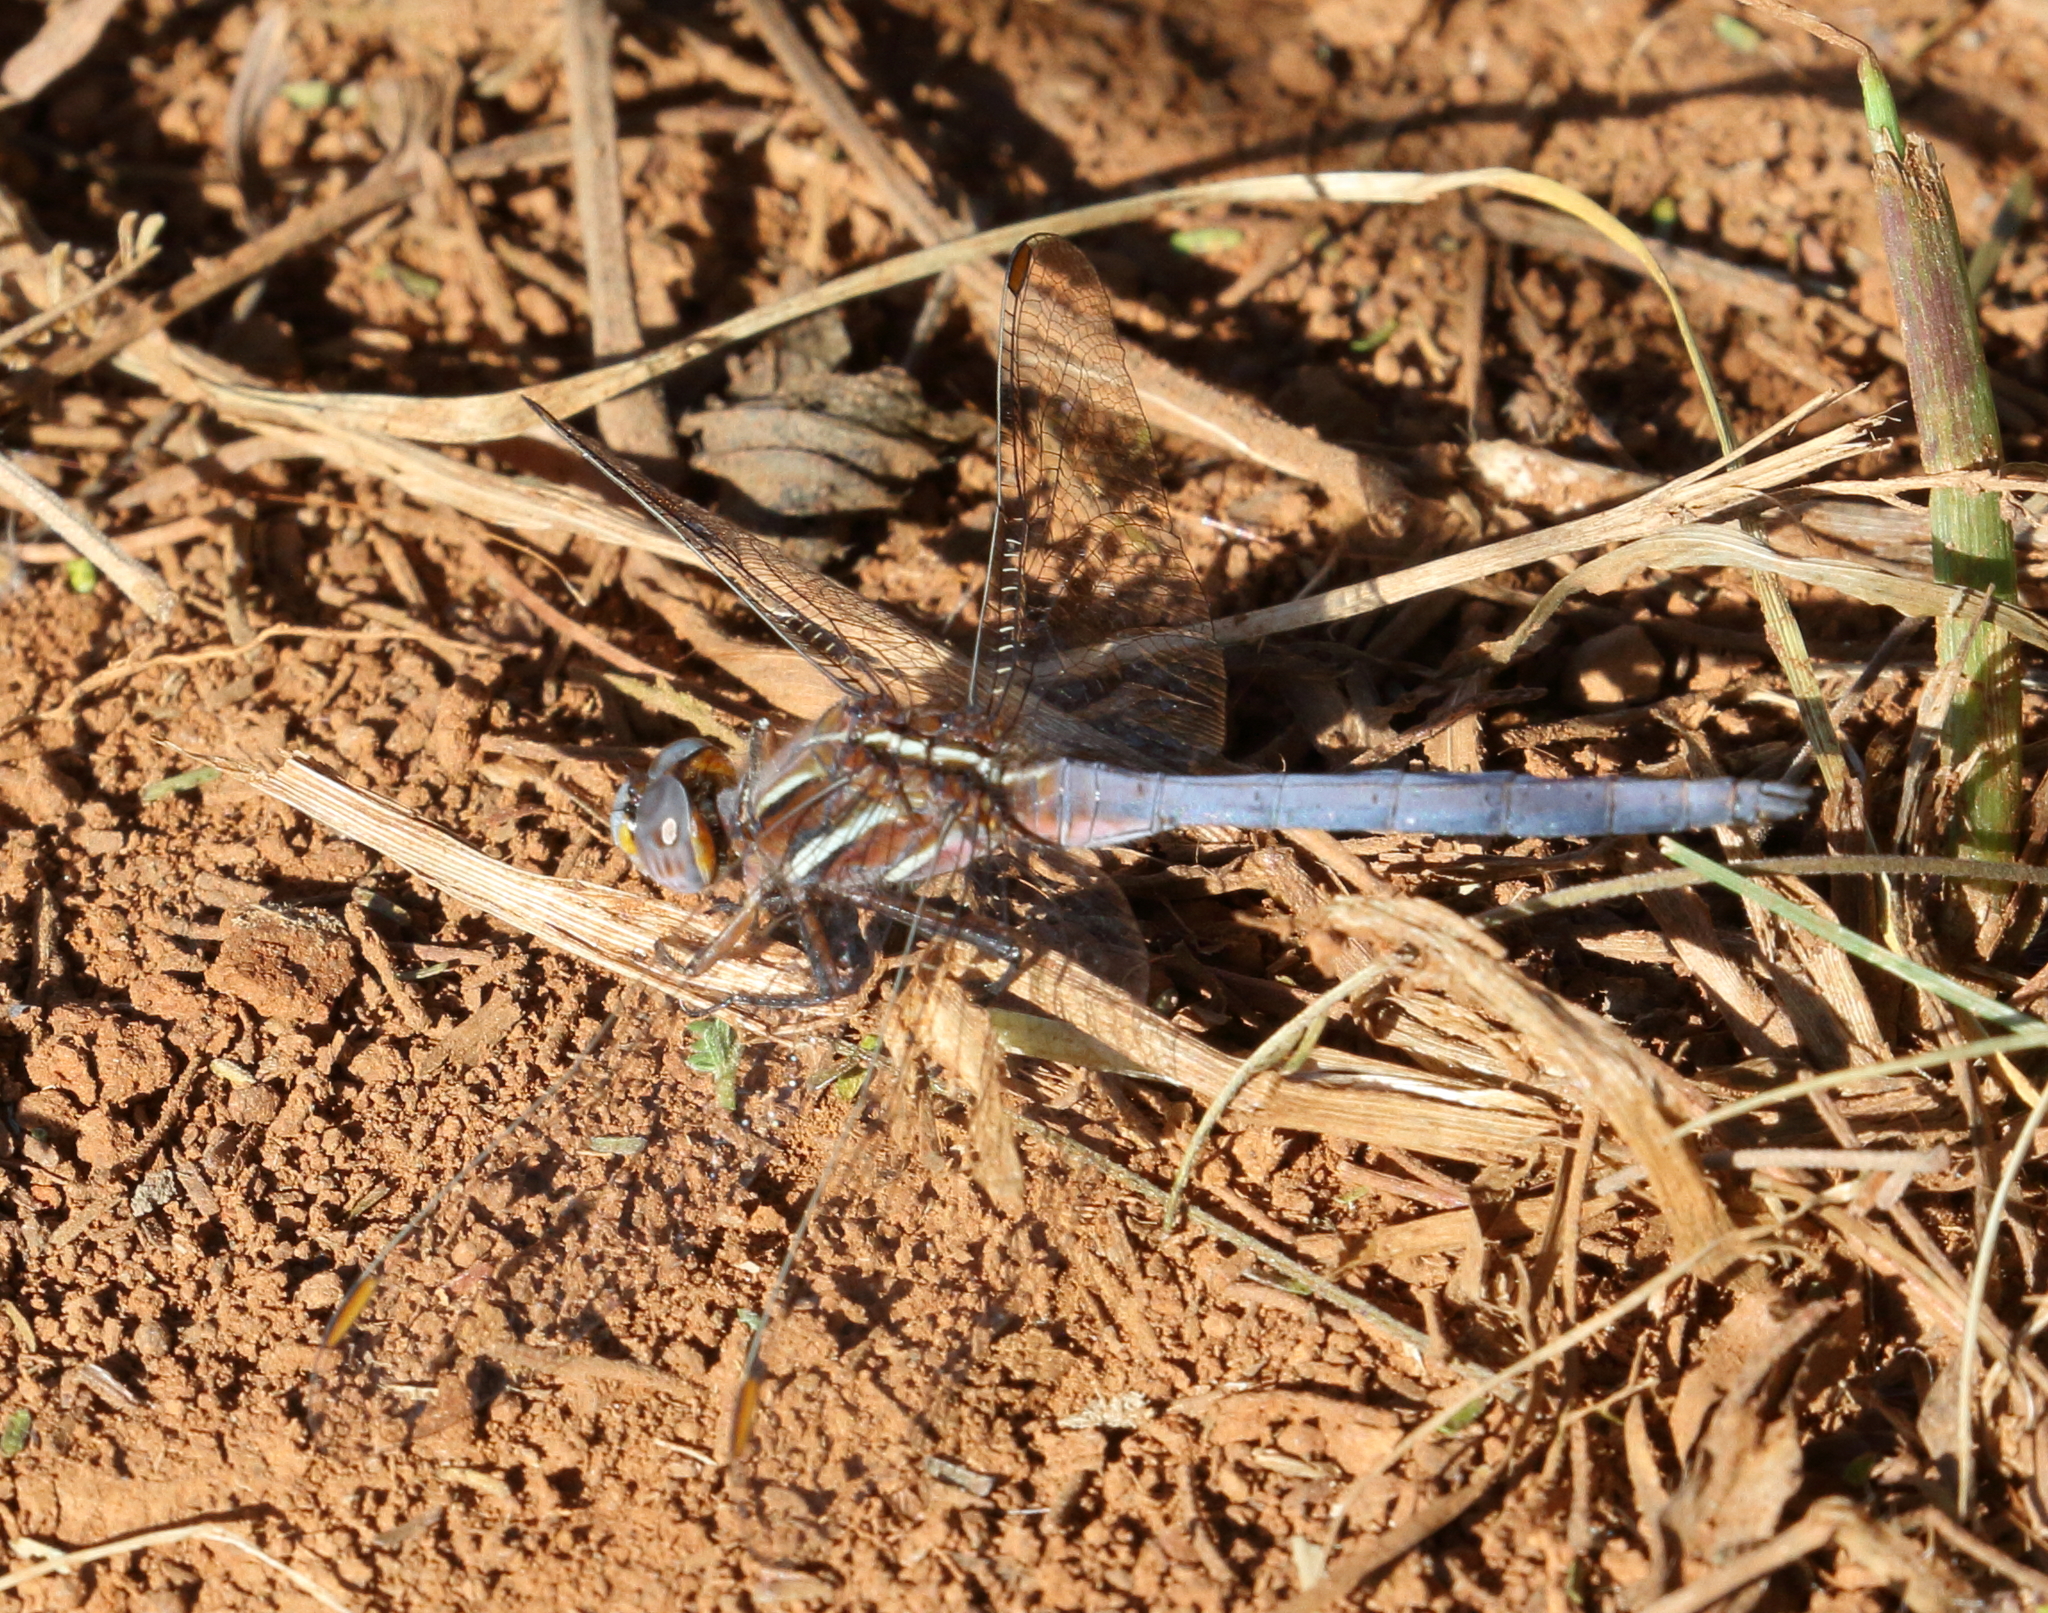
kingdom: Animalia
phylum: Arthropoda
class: Insecta
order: Odonata
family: Libellulidae
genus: Orthetrum
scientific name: Orthetrum caffrum
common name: Two-striped skimmer
